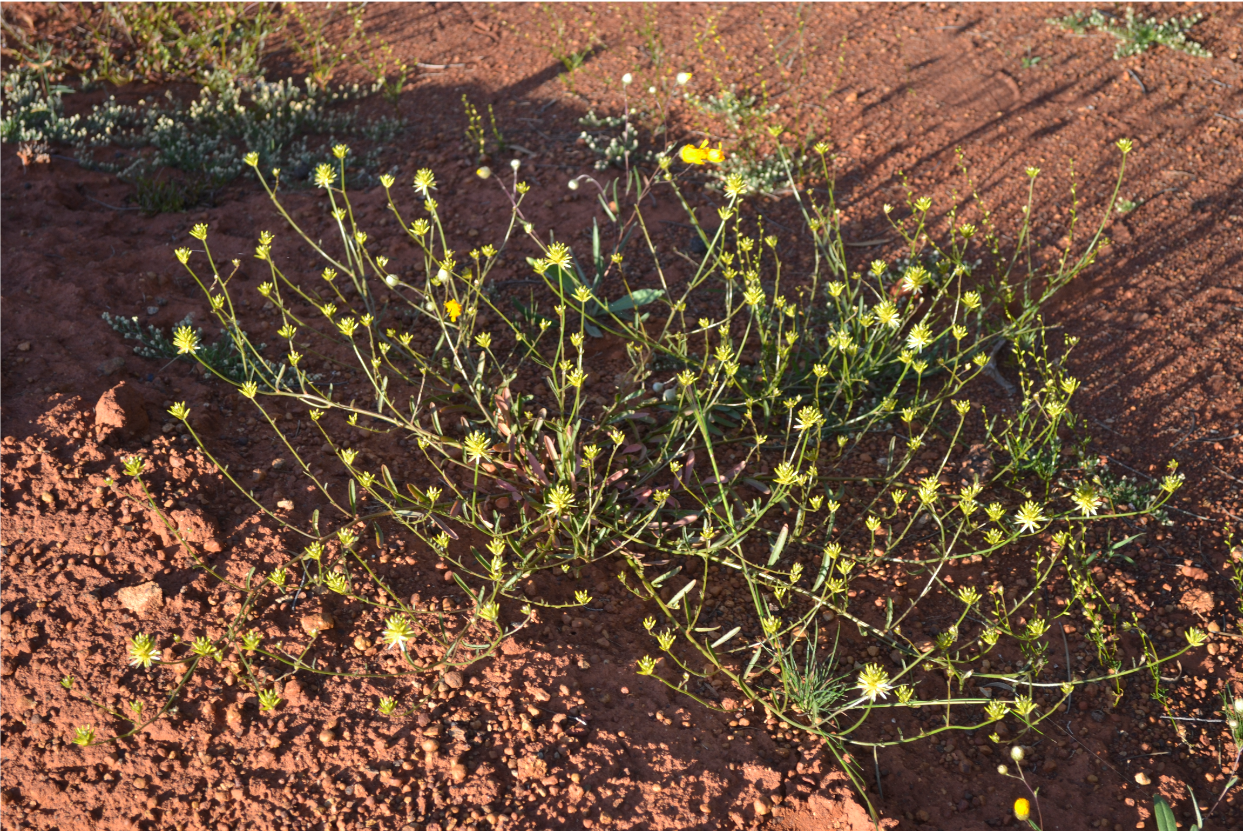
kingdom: Plantae
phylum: Tracheophyta
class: Magnoliopsida
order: Caryophyllales
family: Amaranthaceae
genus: Ptilotus
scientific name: Ptilotus gaudichaudii
